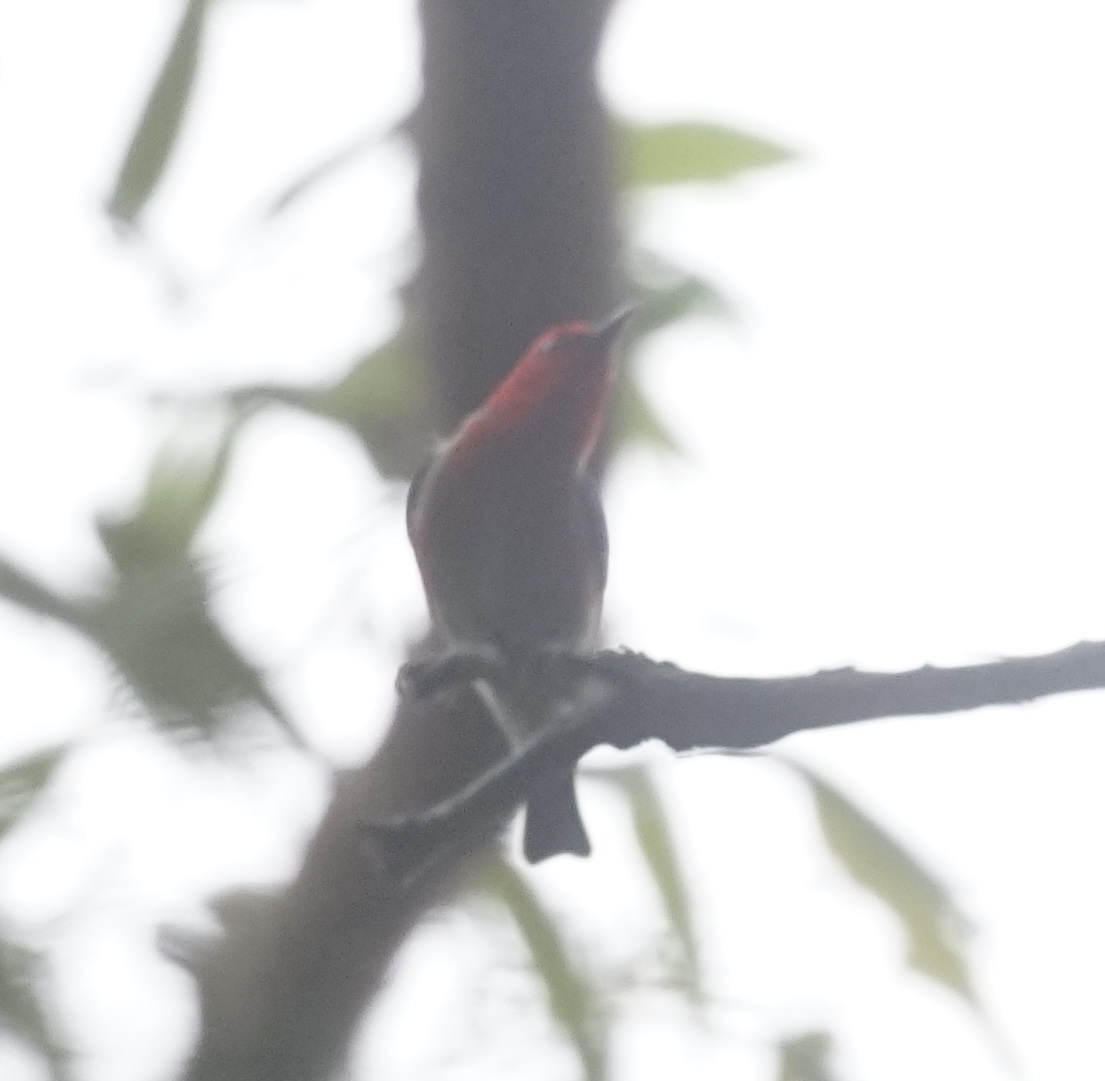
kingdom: Animalia
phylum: Chordata
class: Aves
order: Passeriformes
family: Meliphagidae
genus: Myzomela
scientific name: Myzomela sanguinolenta
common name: Scarlet myzomela
